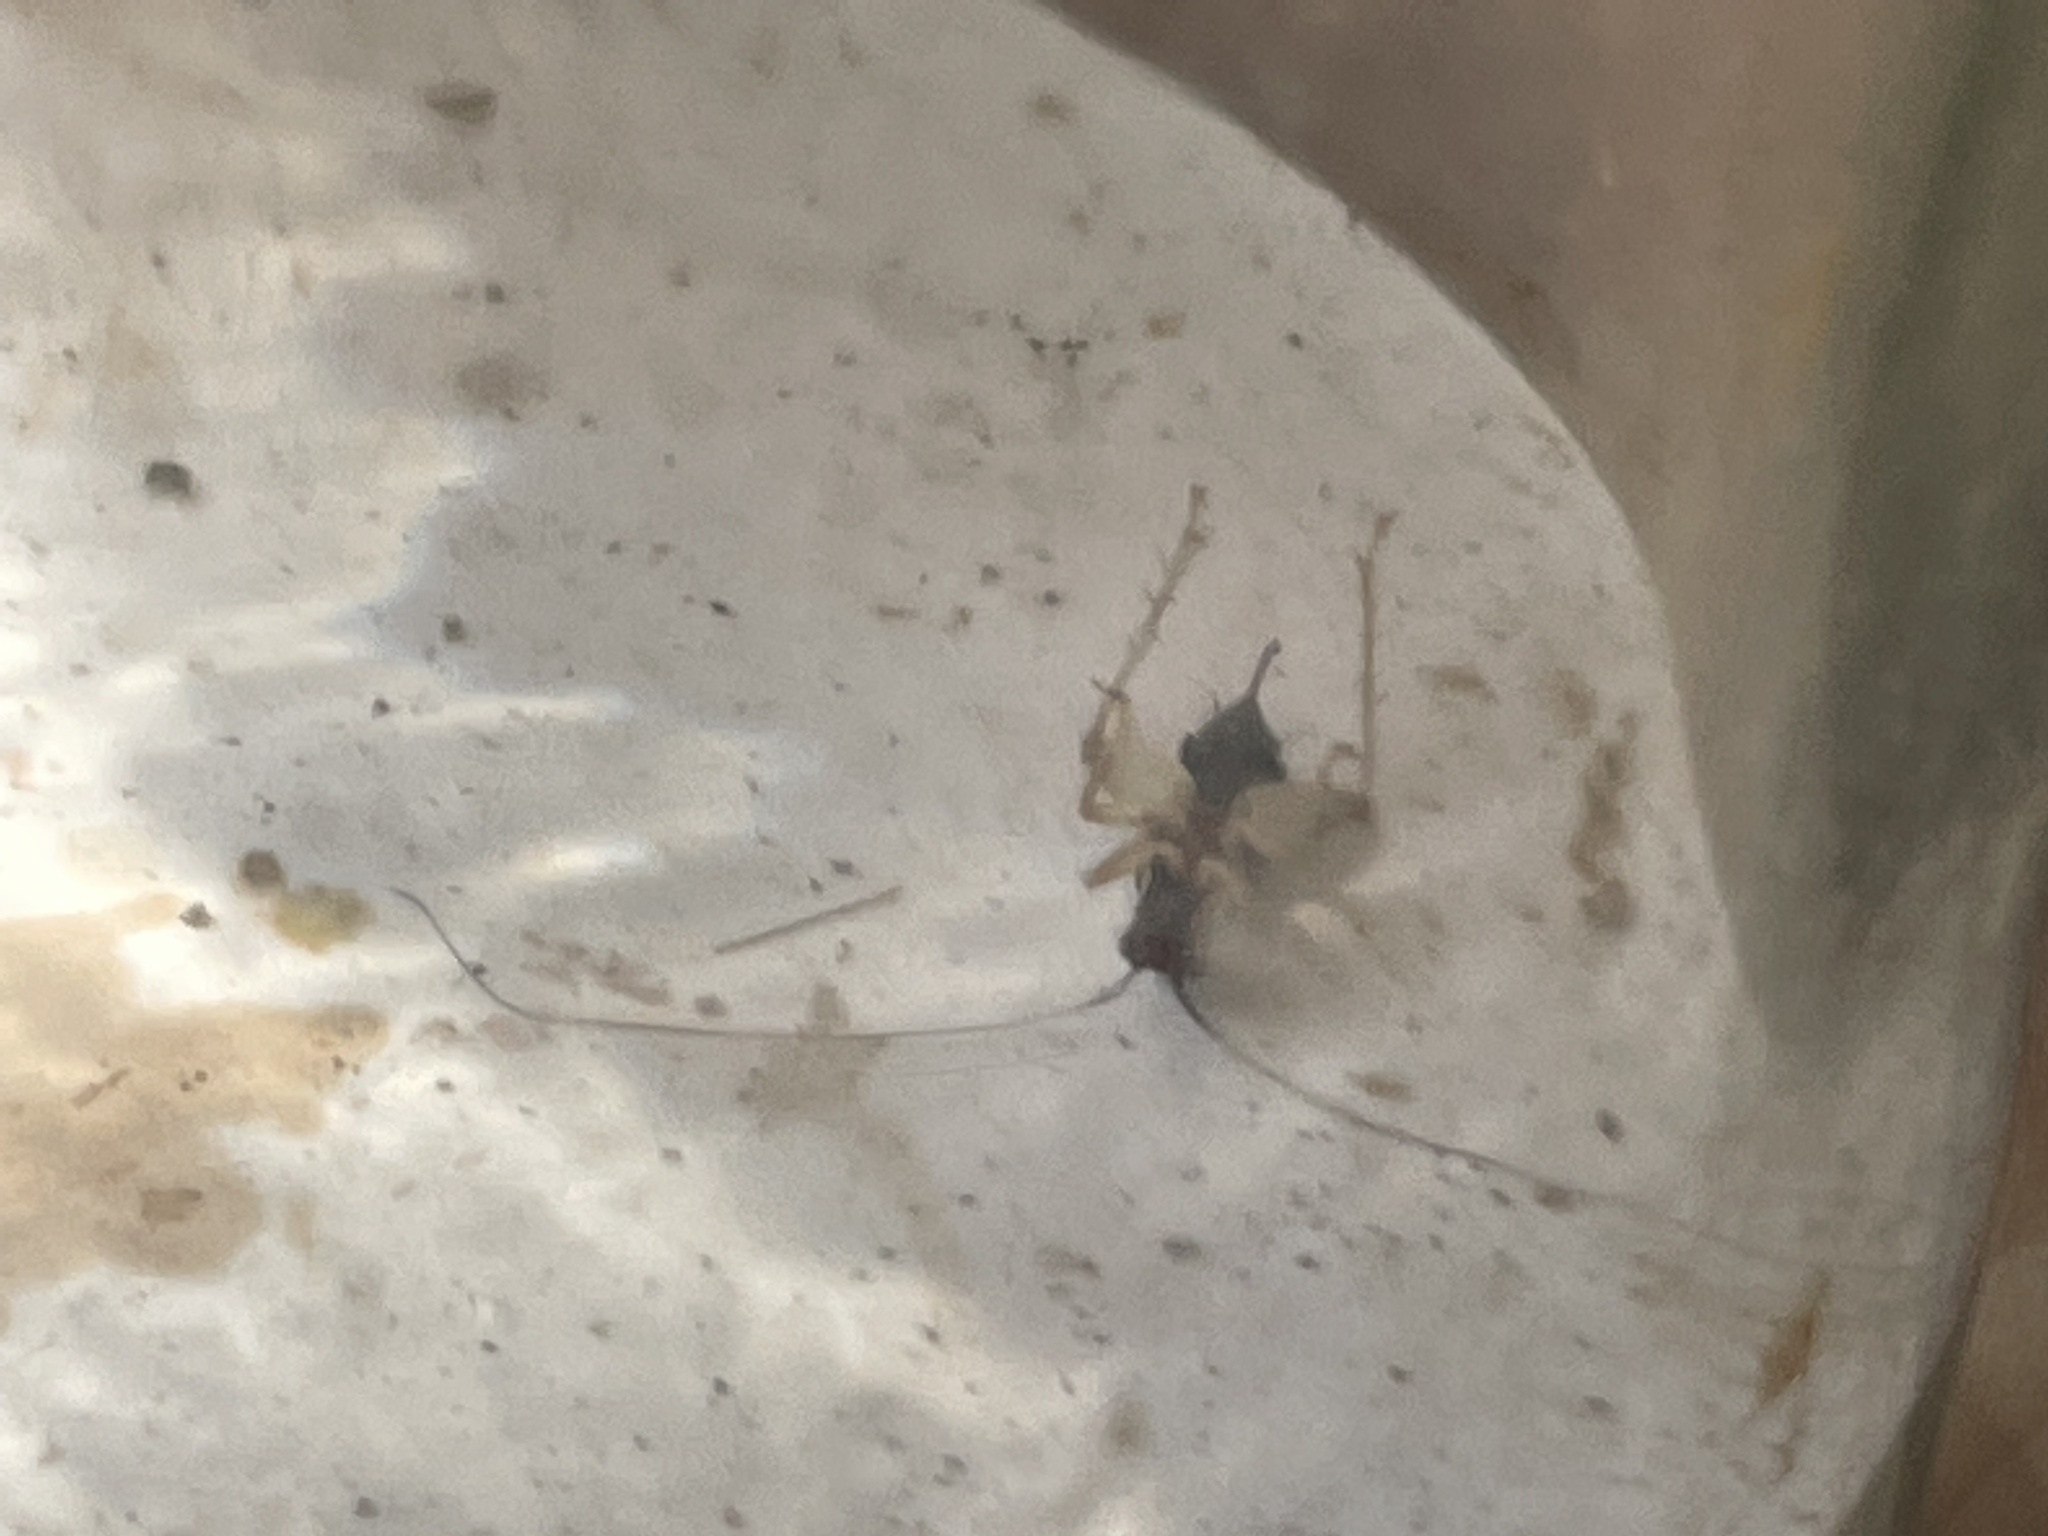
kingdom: Animalia
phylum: Arthropoda
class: Insecta
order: Orthoptera
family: Trigonidiidae
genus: Phyllopalpus
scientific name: Phyllopalpus pulchellus
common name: Handsome trig
